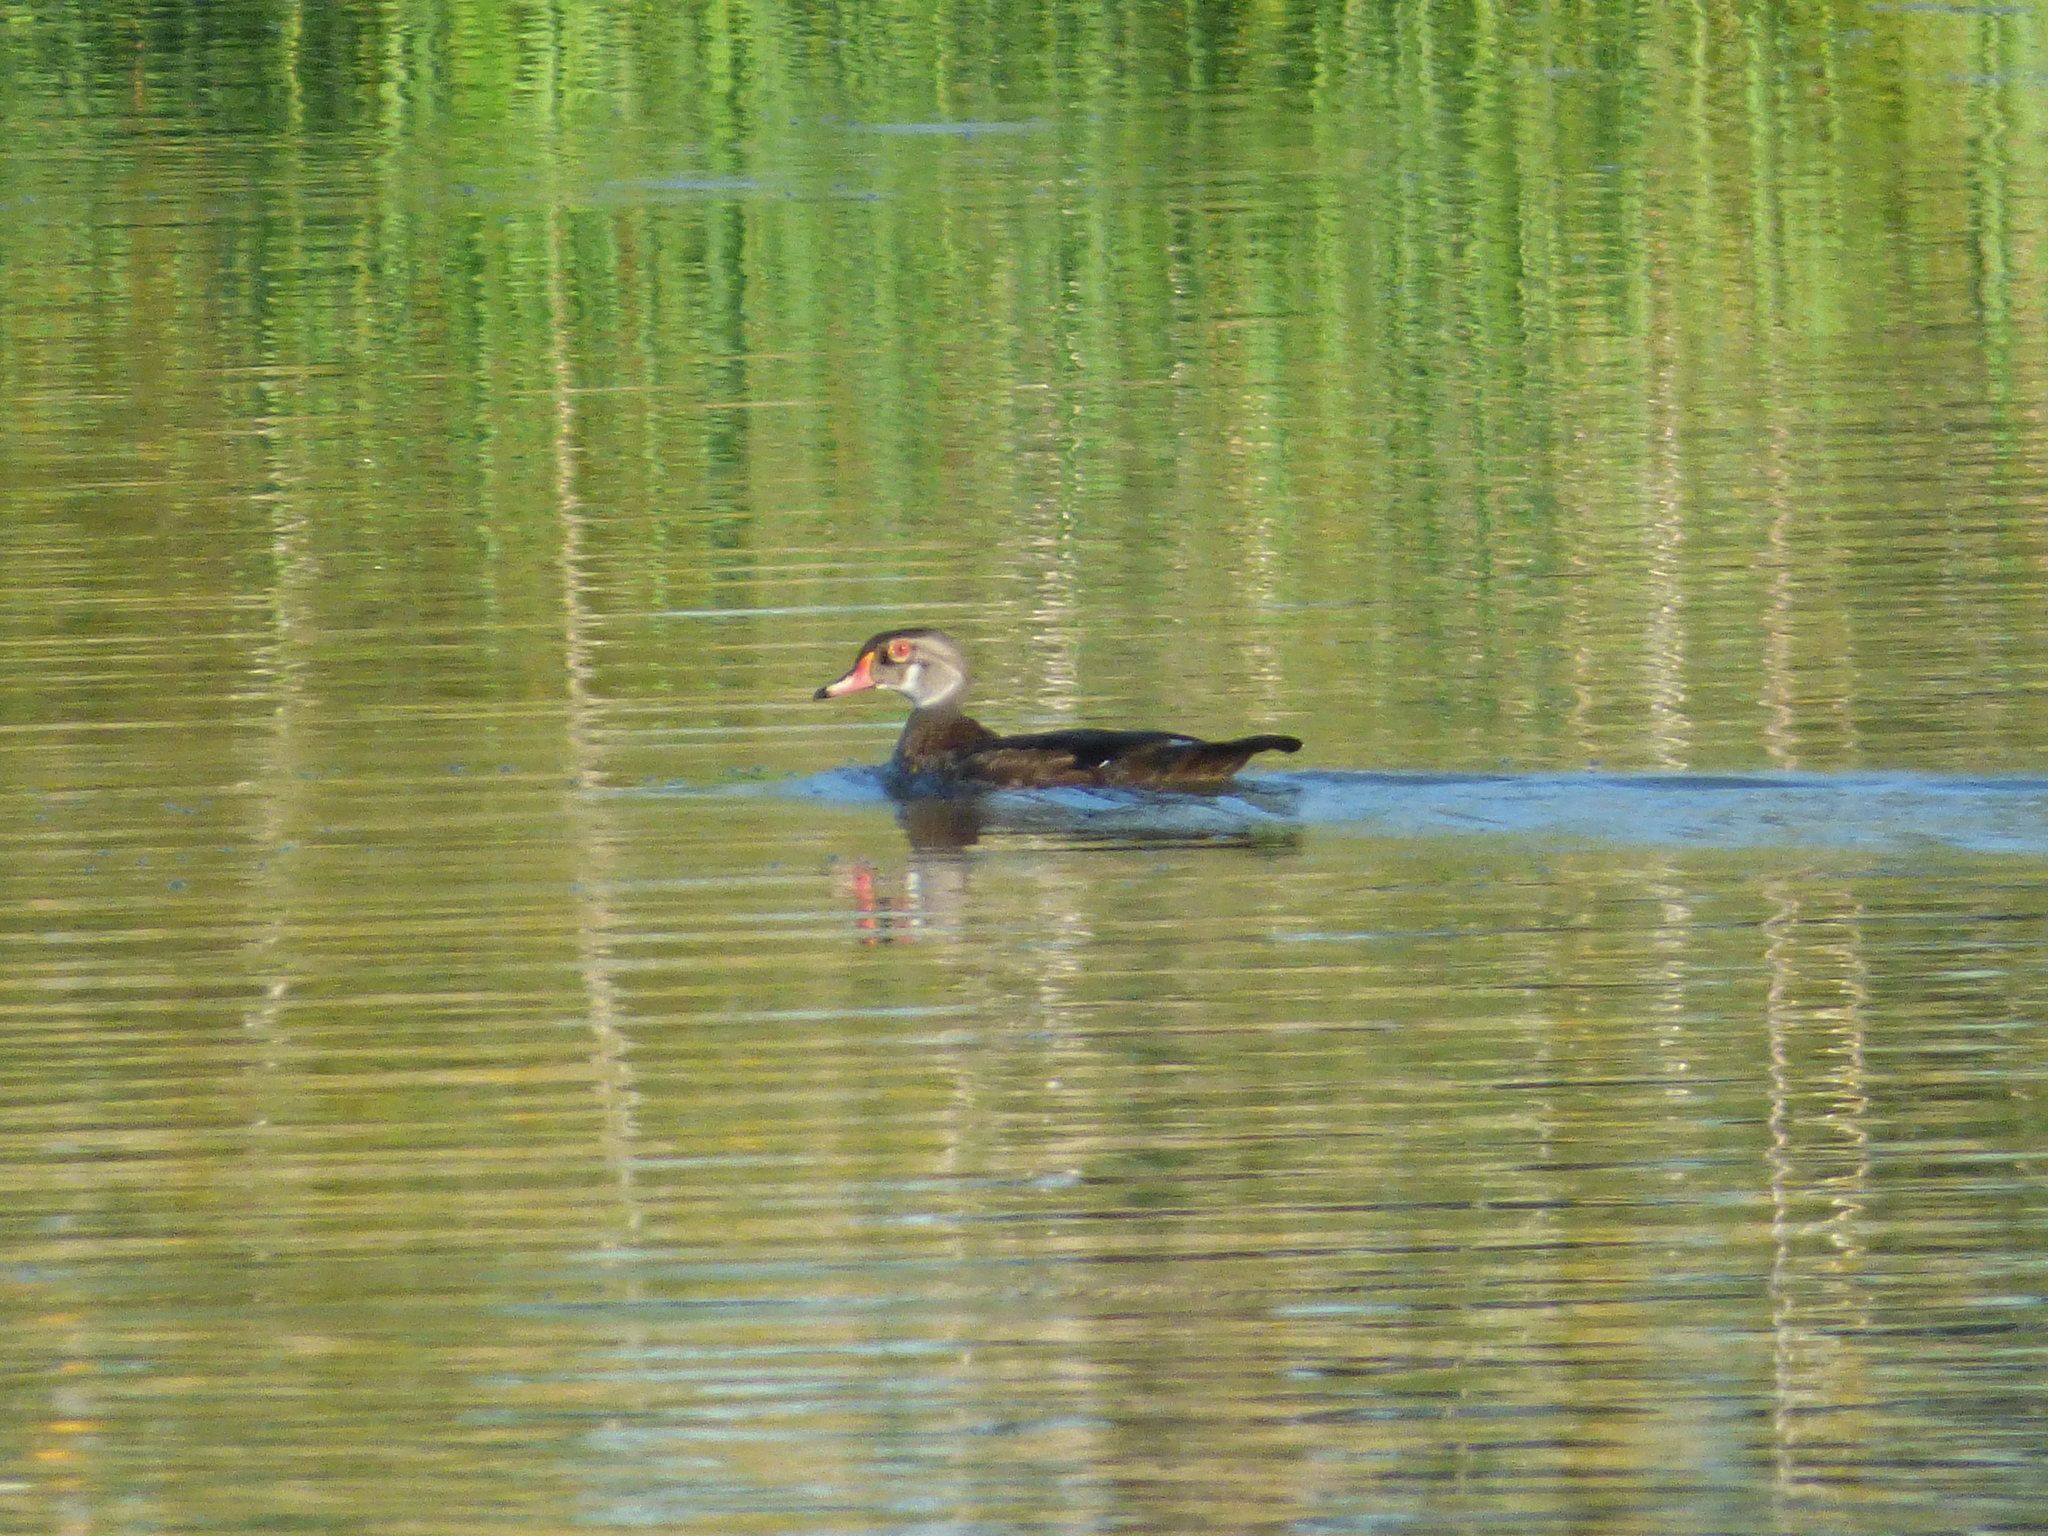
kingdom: Animalia
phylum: Chordata
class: Aves
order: Anseriformes
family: Anatidae
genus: Aix
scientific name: Aix sponsa
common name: Wood duck
